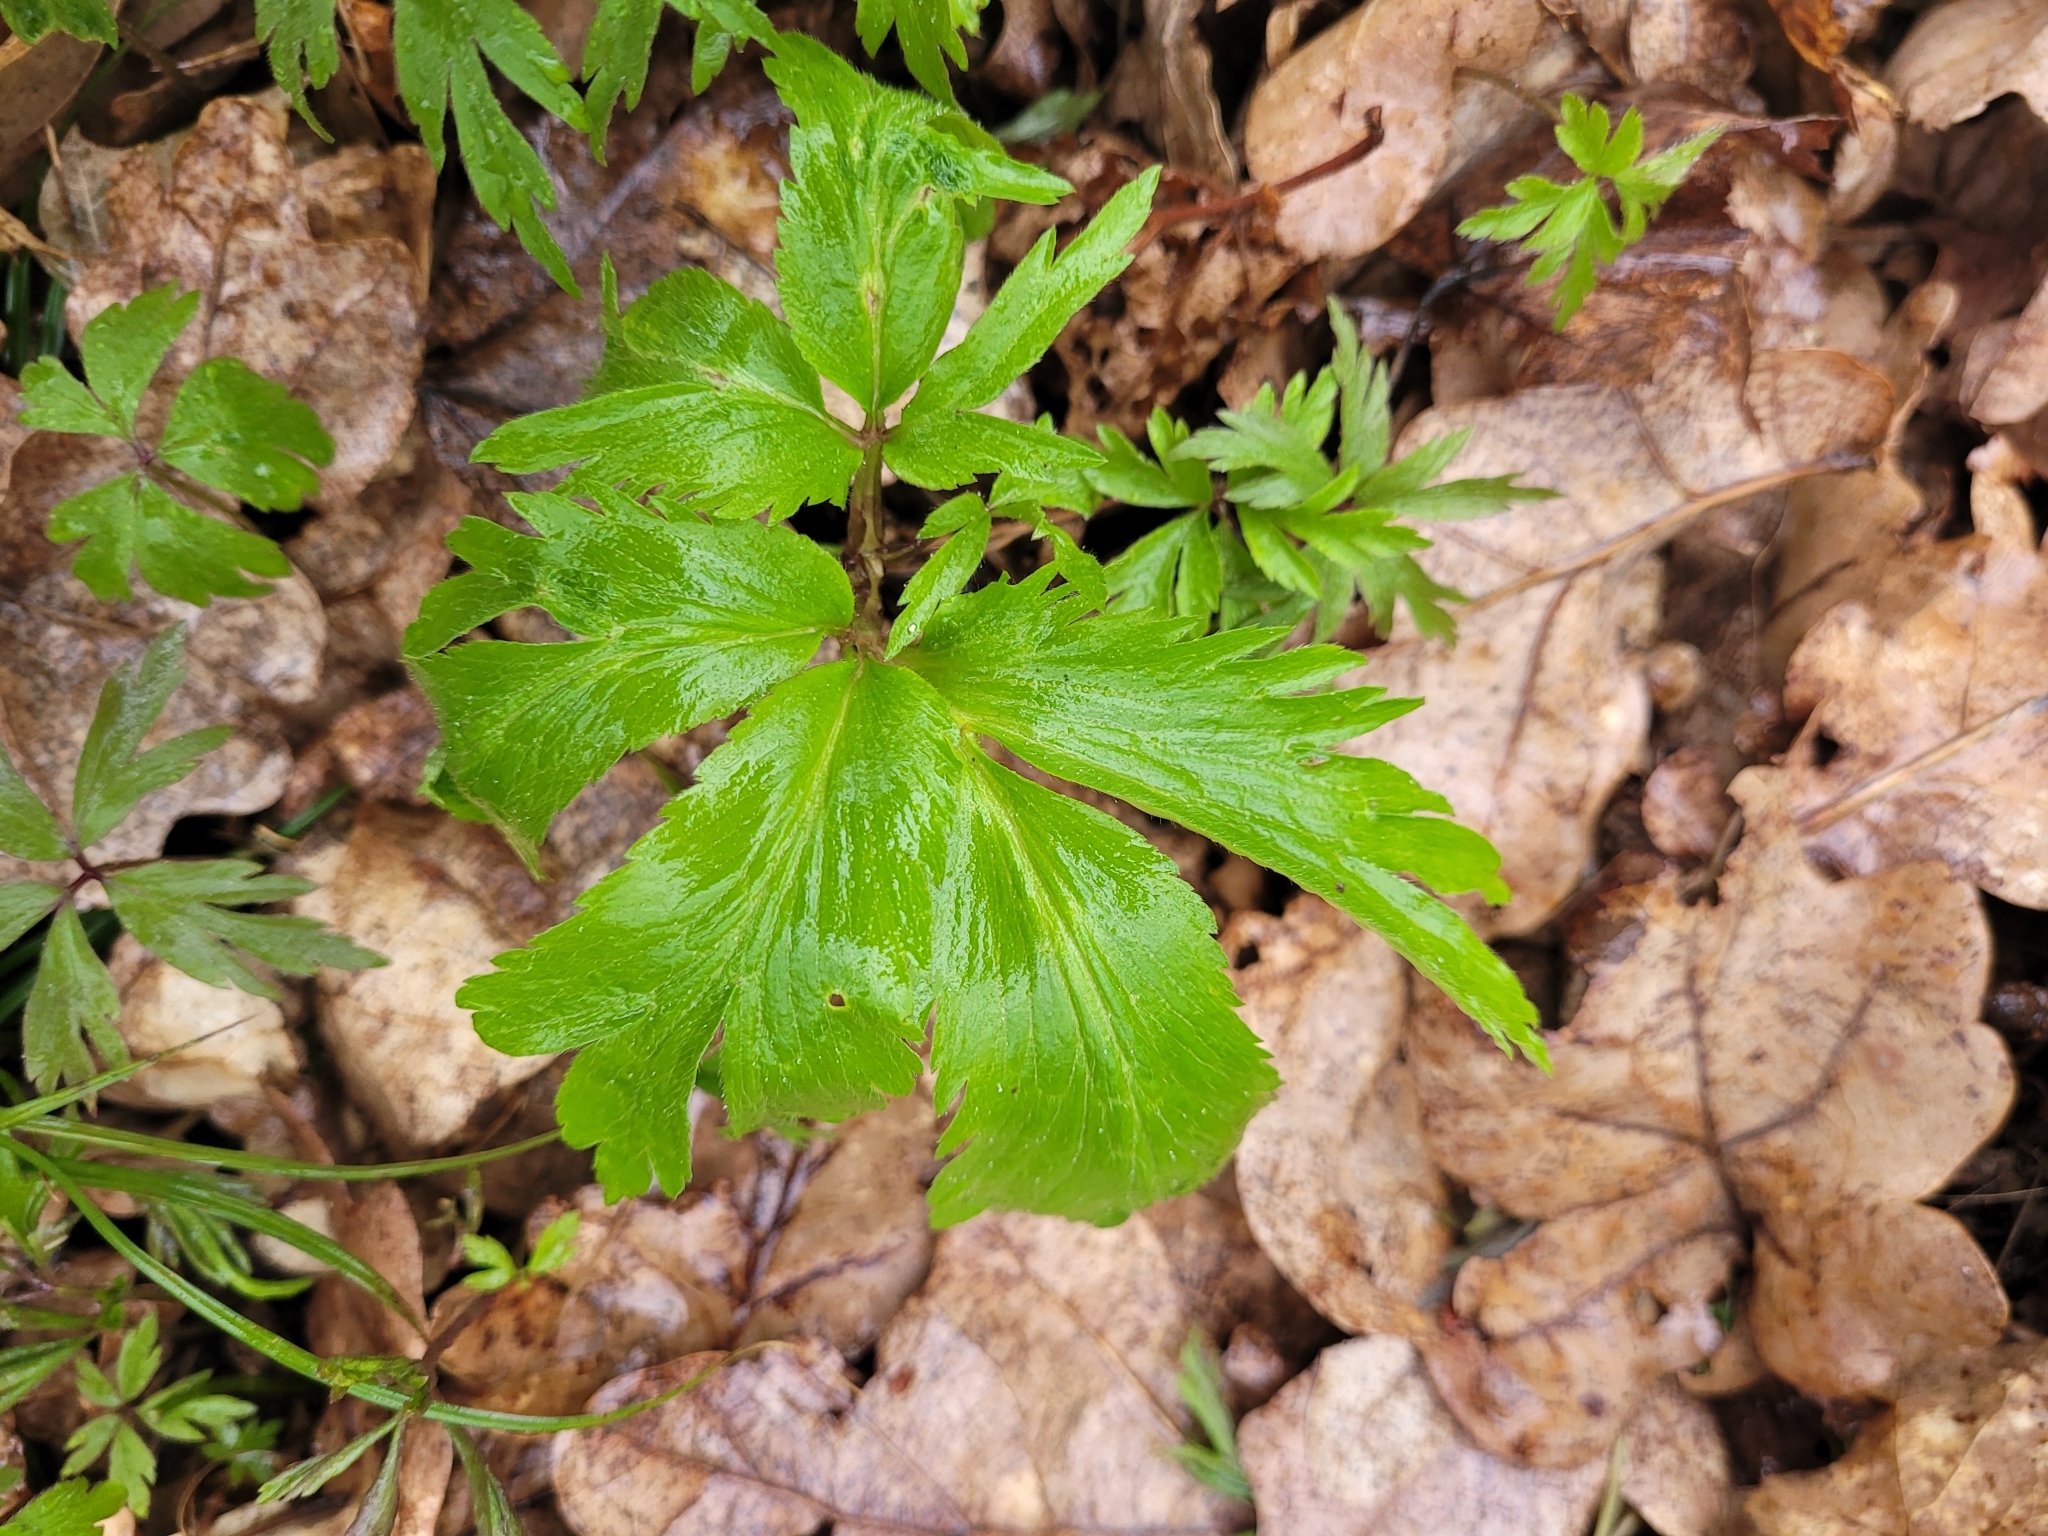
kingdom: Plantae
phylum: Tracheophyta
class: Magnoliopsida
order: Ranunculales
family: Ranunculaceae
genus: Anemone
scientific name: Anemone nemorosa
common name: Wood anemone
